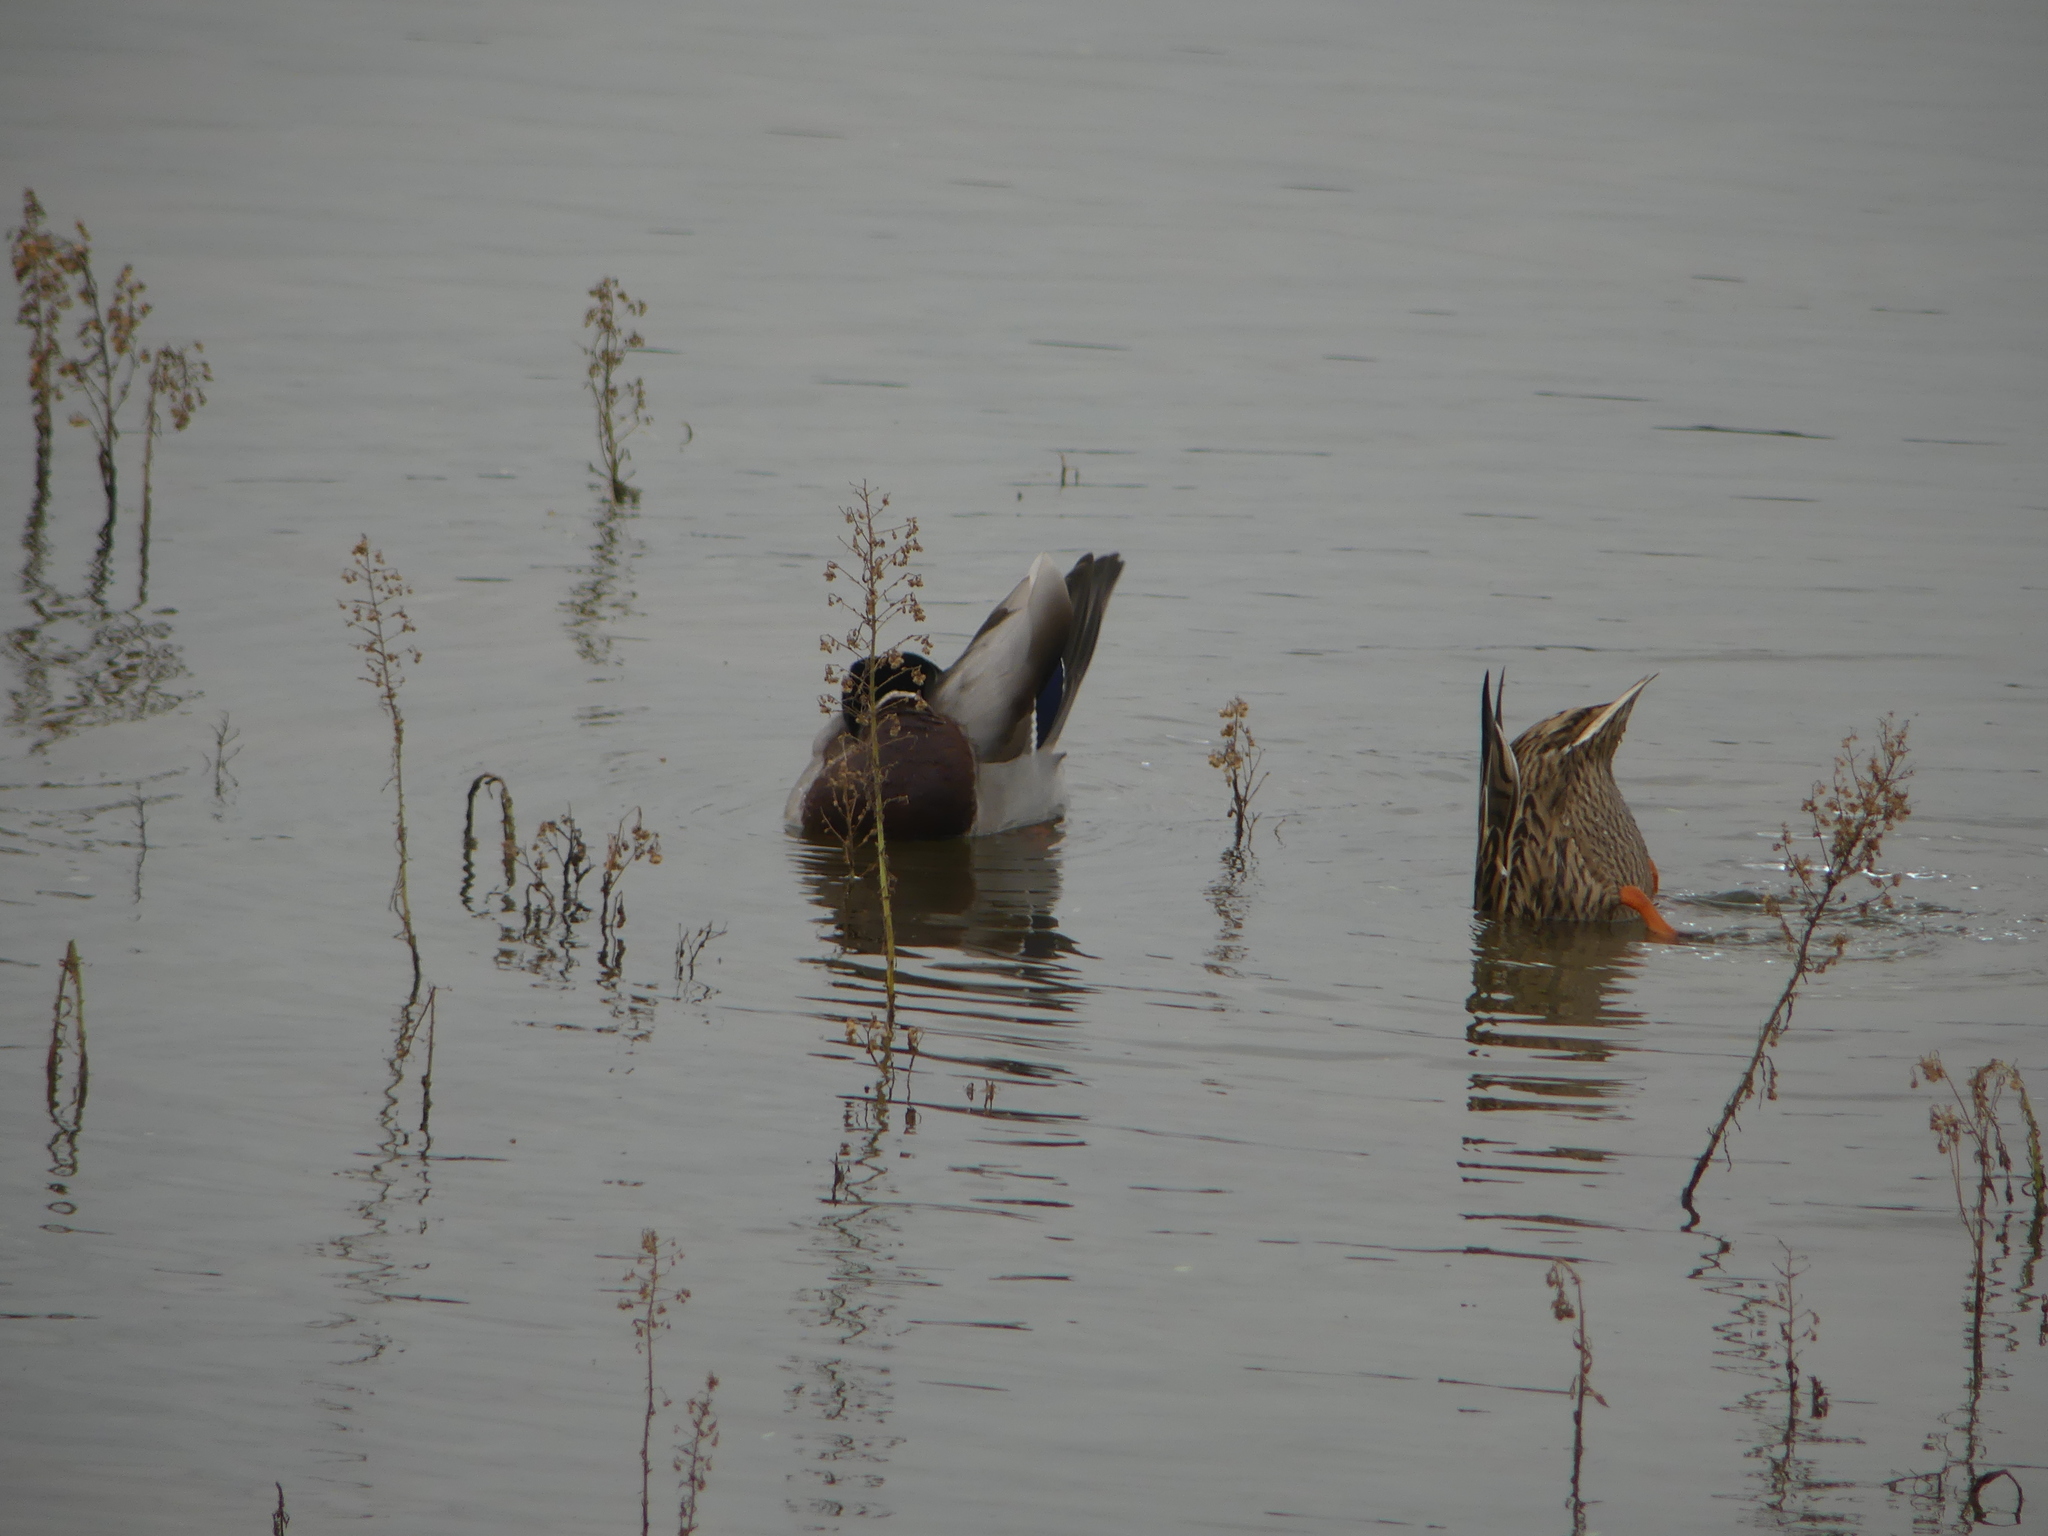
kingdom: Animalia
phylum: Chordata
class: Aves
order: Anseriformes
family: Anatidae
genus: Anas
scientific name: Anas platyrhynchos
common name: Mallard
